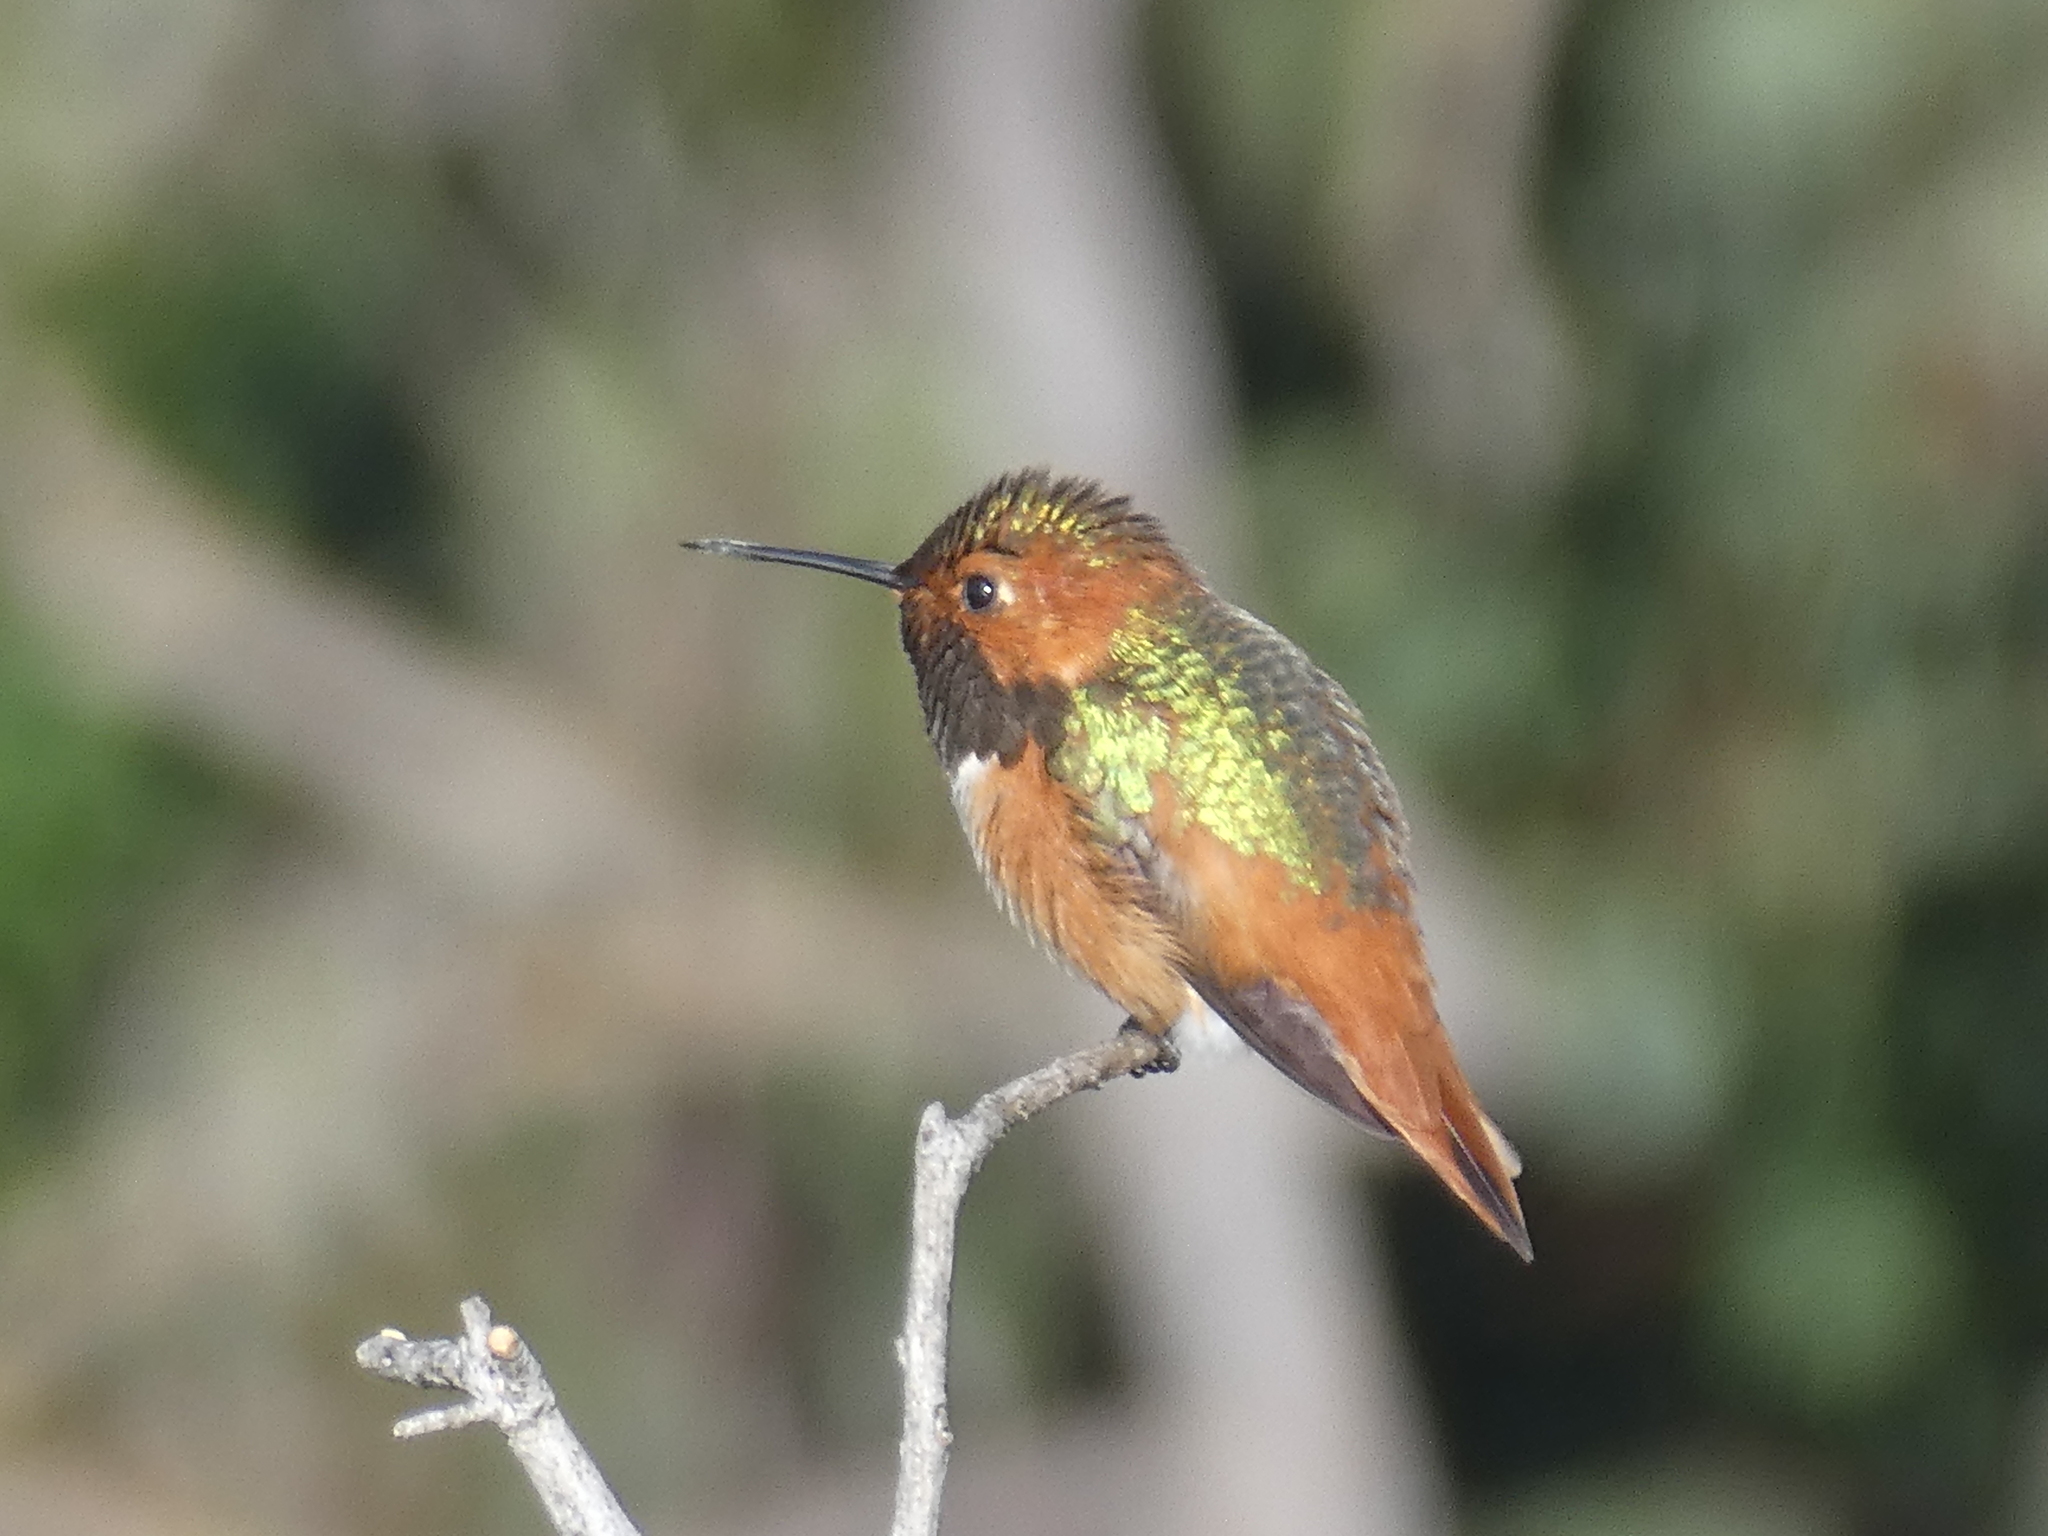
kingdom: Animalia
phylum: Chordata
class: Aves
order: Apodiformes
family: Trochilidae
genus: Selasphorus
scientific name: Selasphorus sasin
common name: Allen's hummingbird
